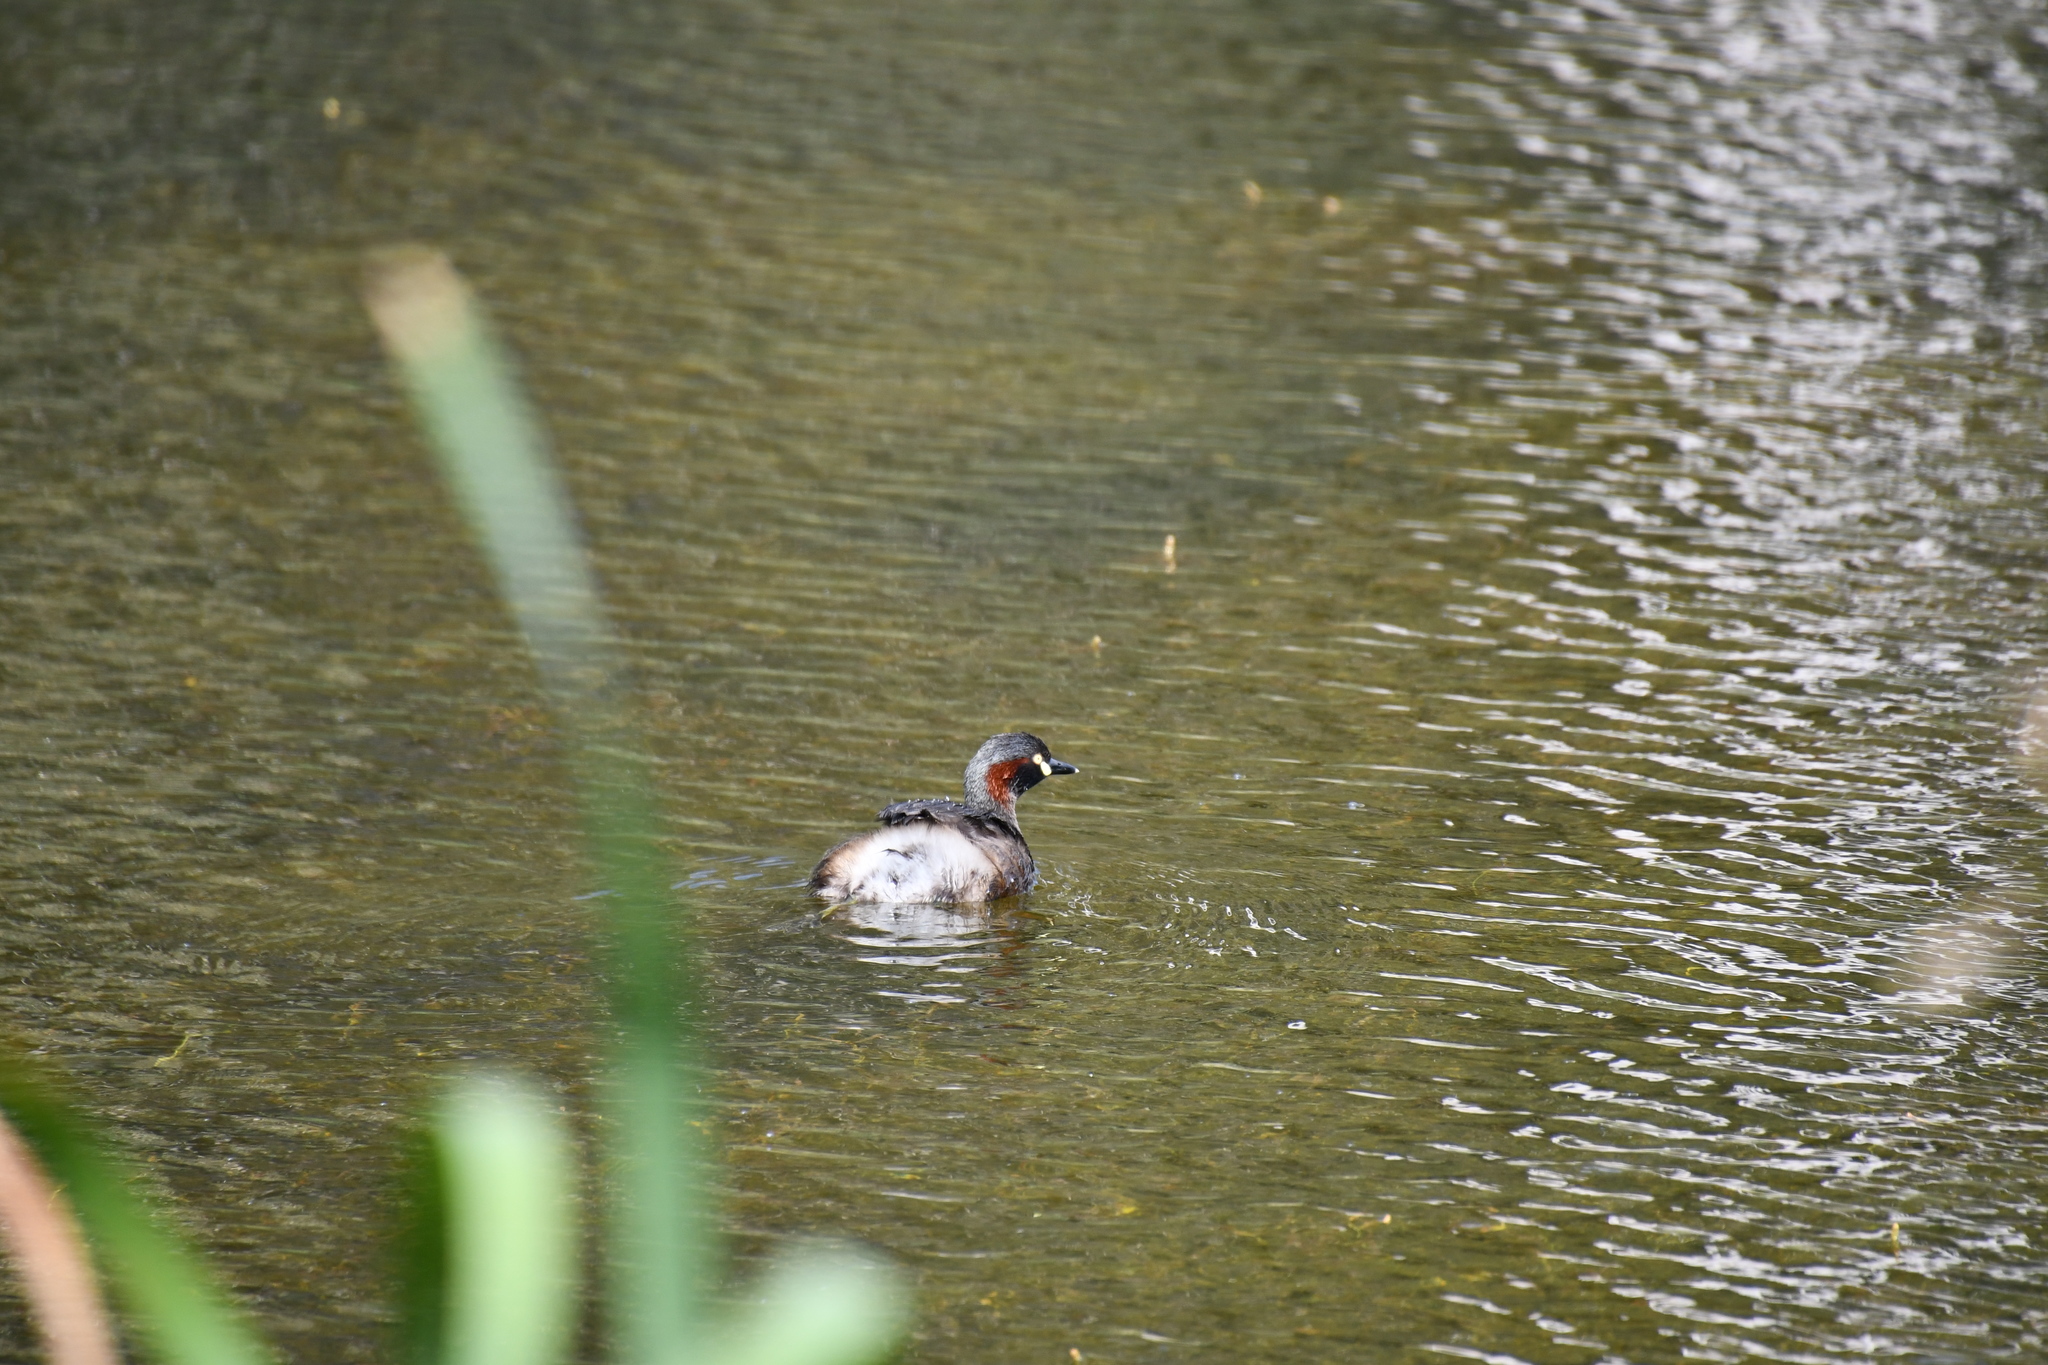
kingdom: Animalia
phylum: Chordata
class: Aves
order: Podicipediformes
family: Podicipedidae
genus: Tachybaptus
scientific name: Tachybaptus novaehollandiae
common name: Australasian grebe
